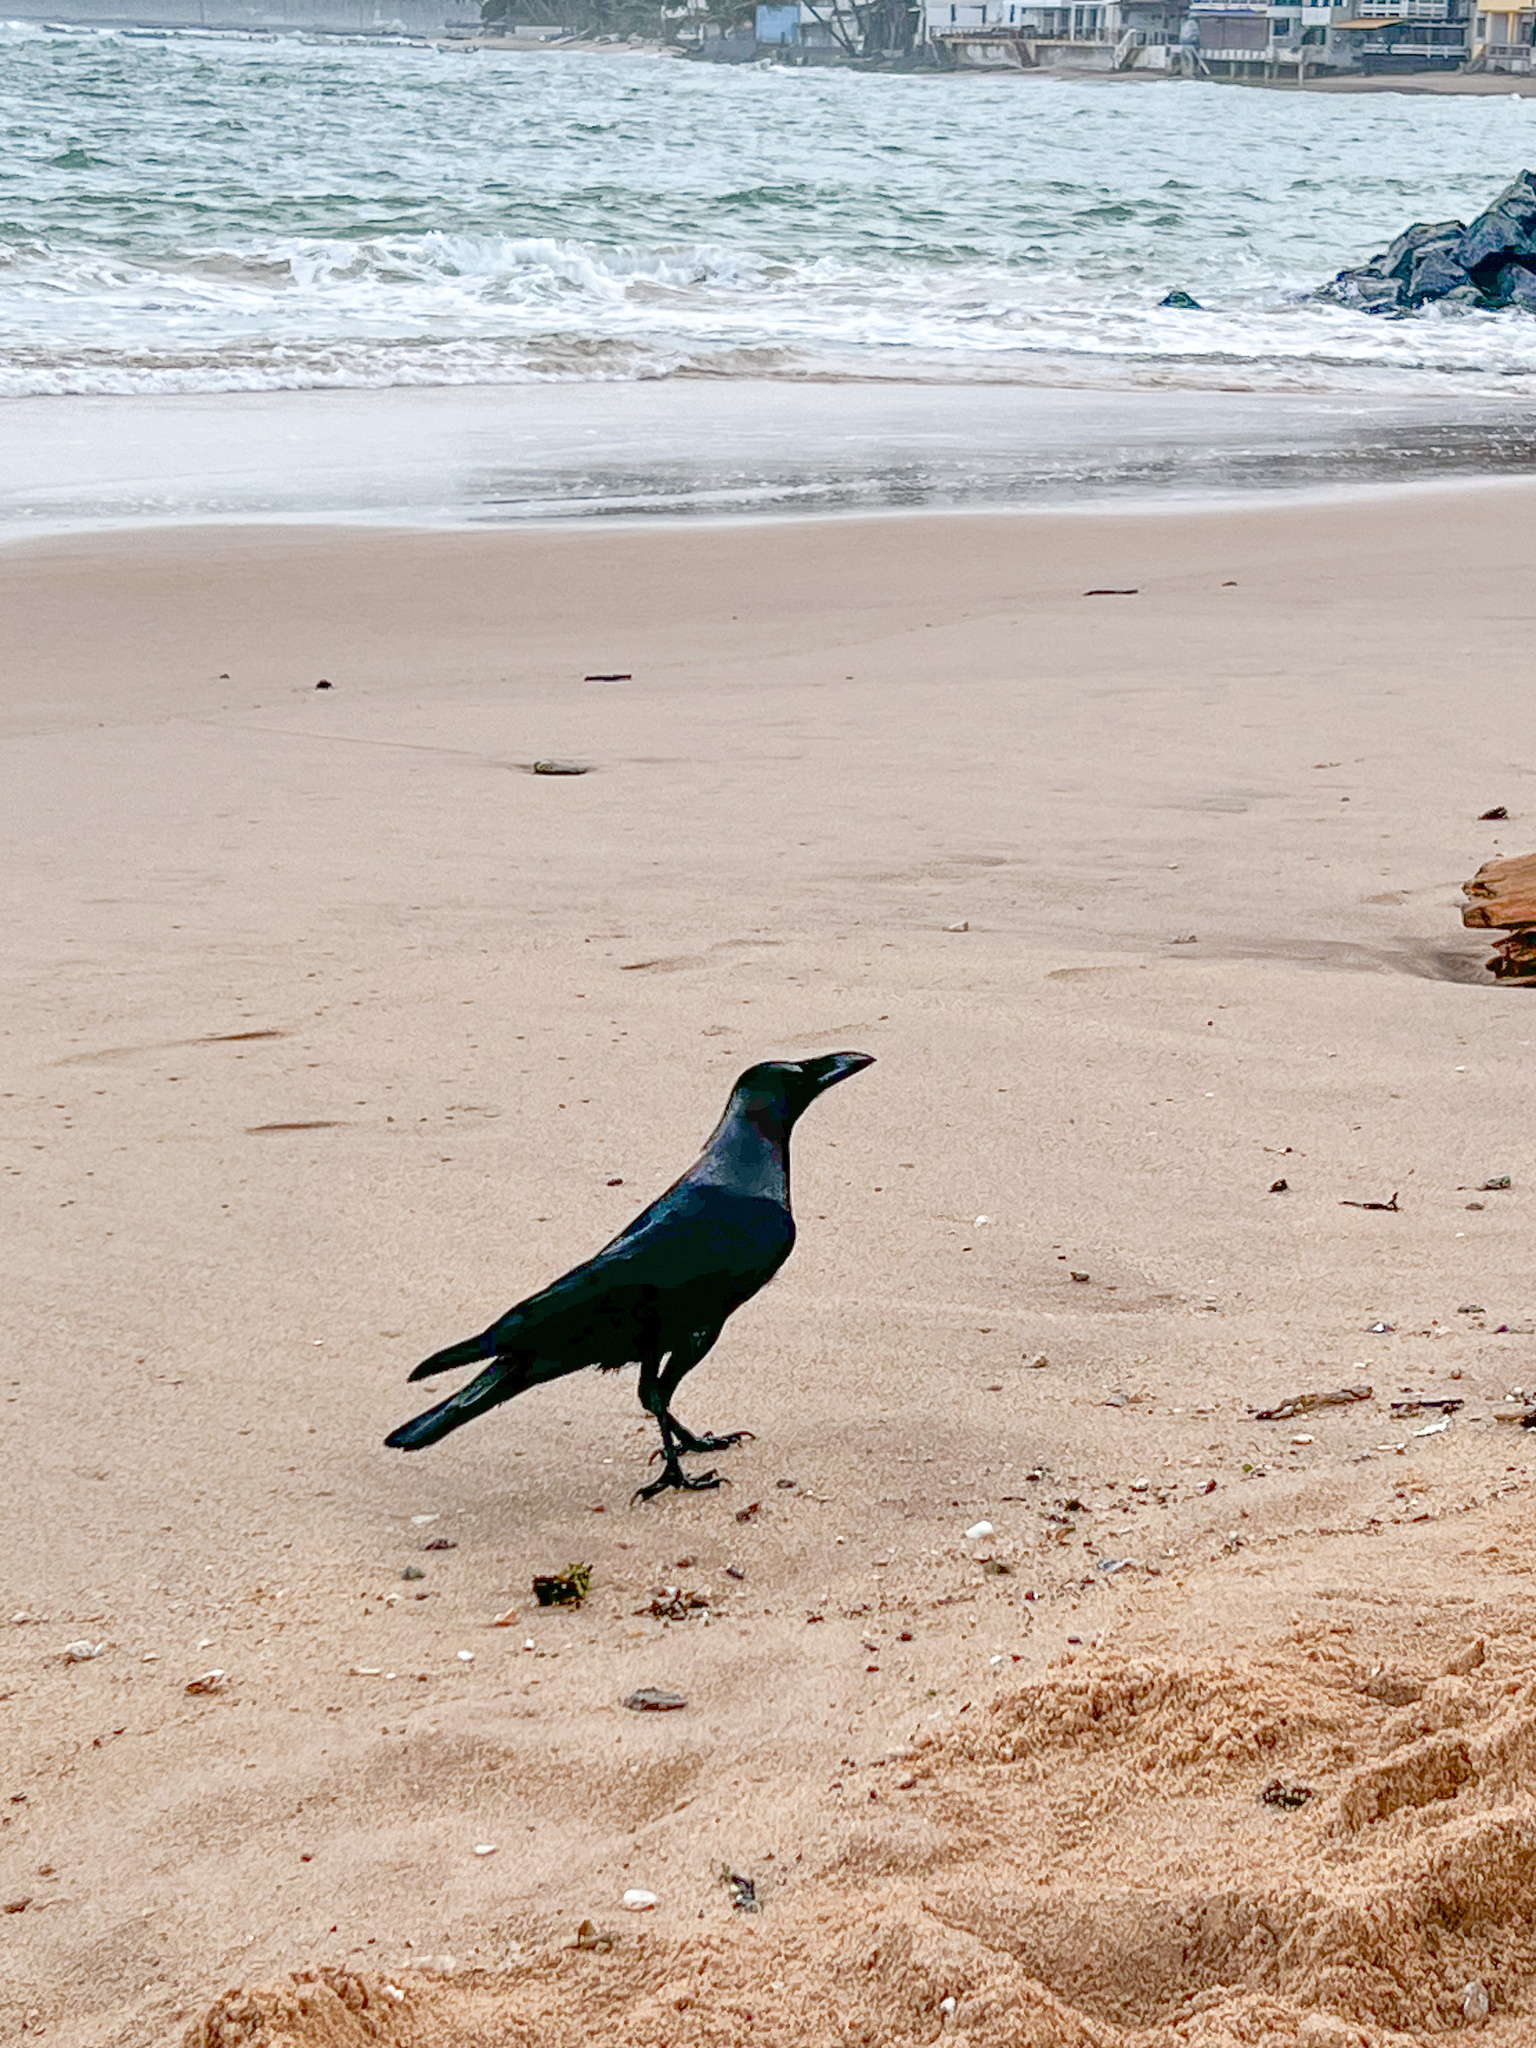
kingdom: Animalia
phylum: Chordata
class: Aves
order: Passeriformes
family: Corvidae
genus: Corvus
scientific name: Corvus splendens
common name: House crow
